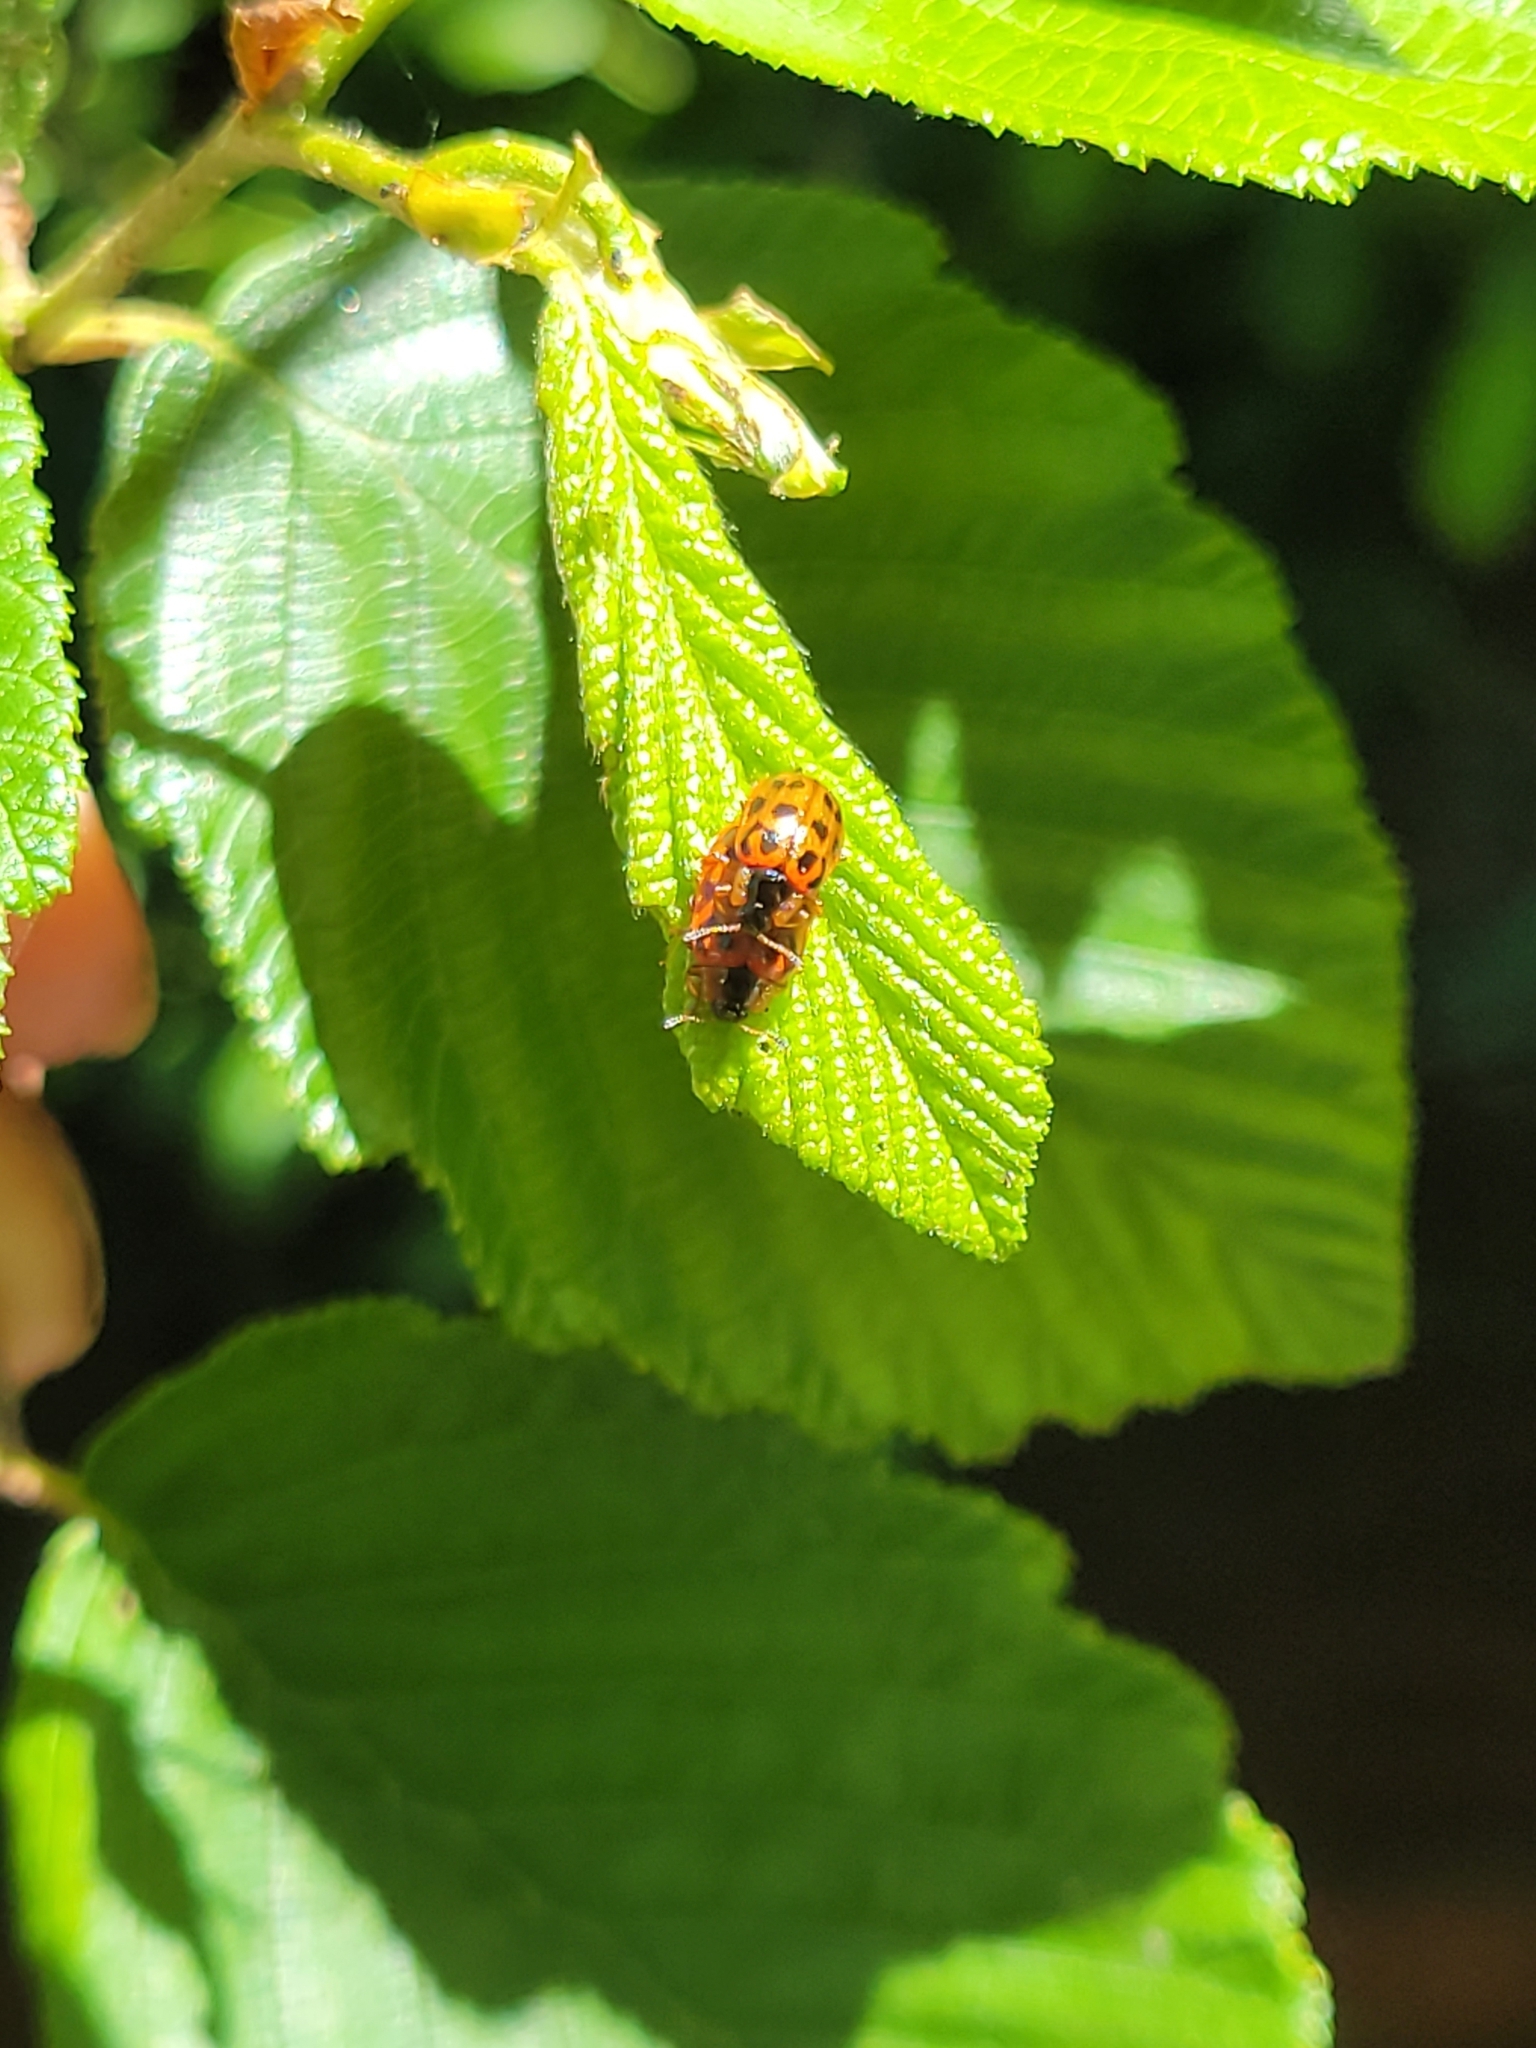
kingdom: Animalia
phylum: Arthropoda
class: Insecta
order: Coleoptera
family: Chrysomelidae
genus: Chrysomela
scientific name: Chrysomela mainensis
